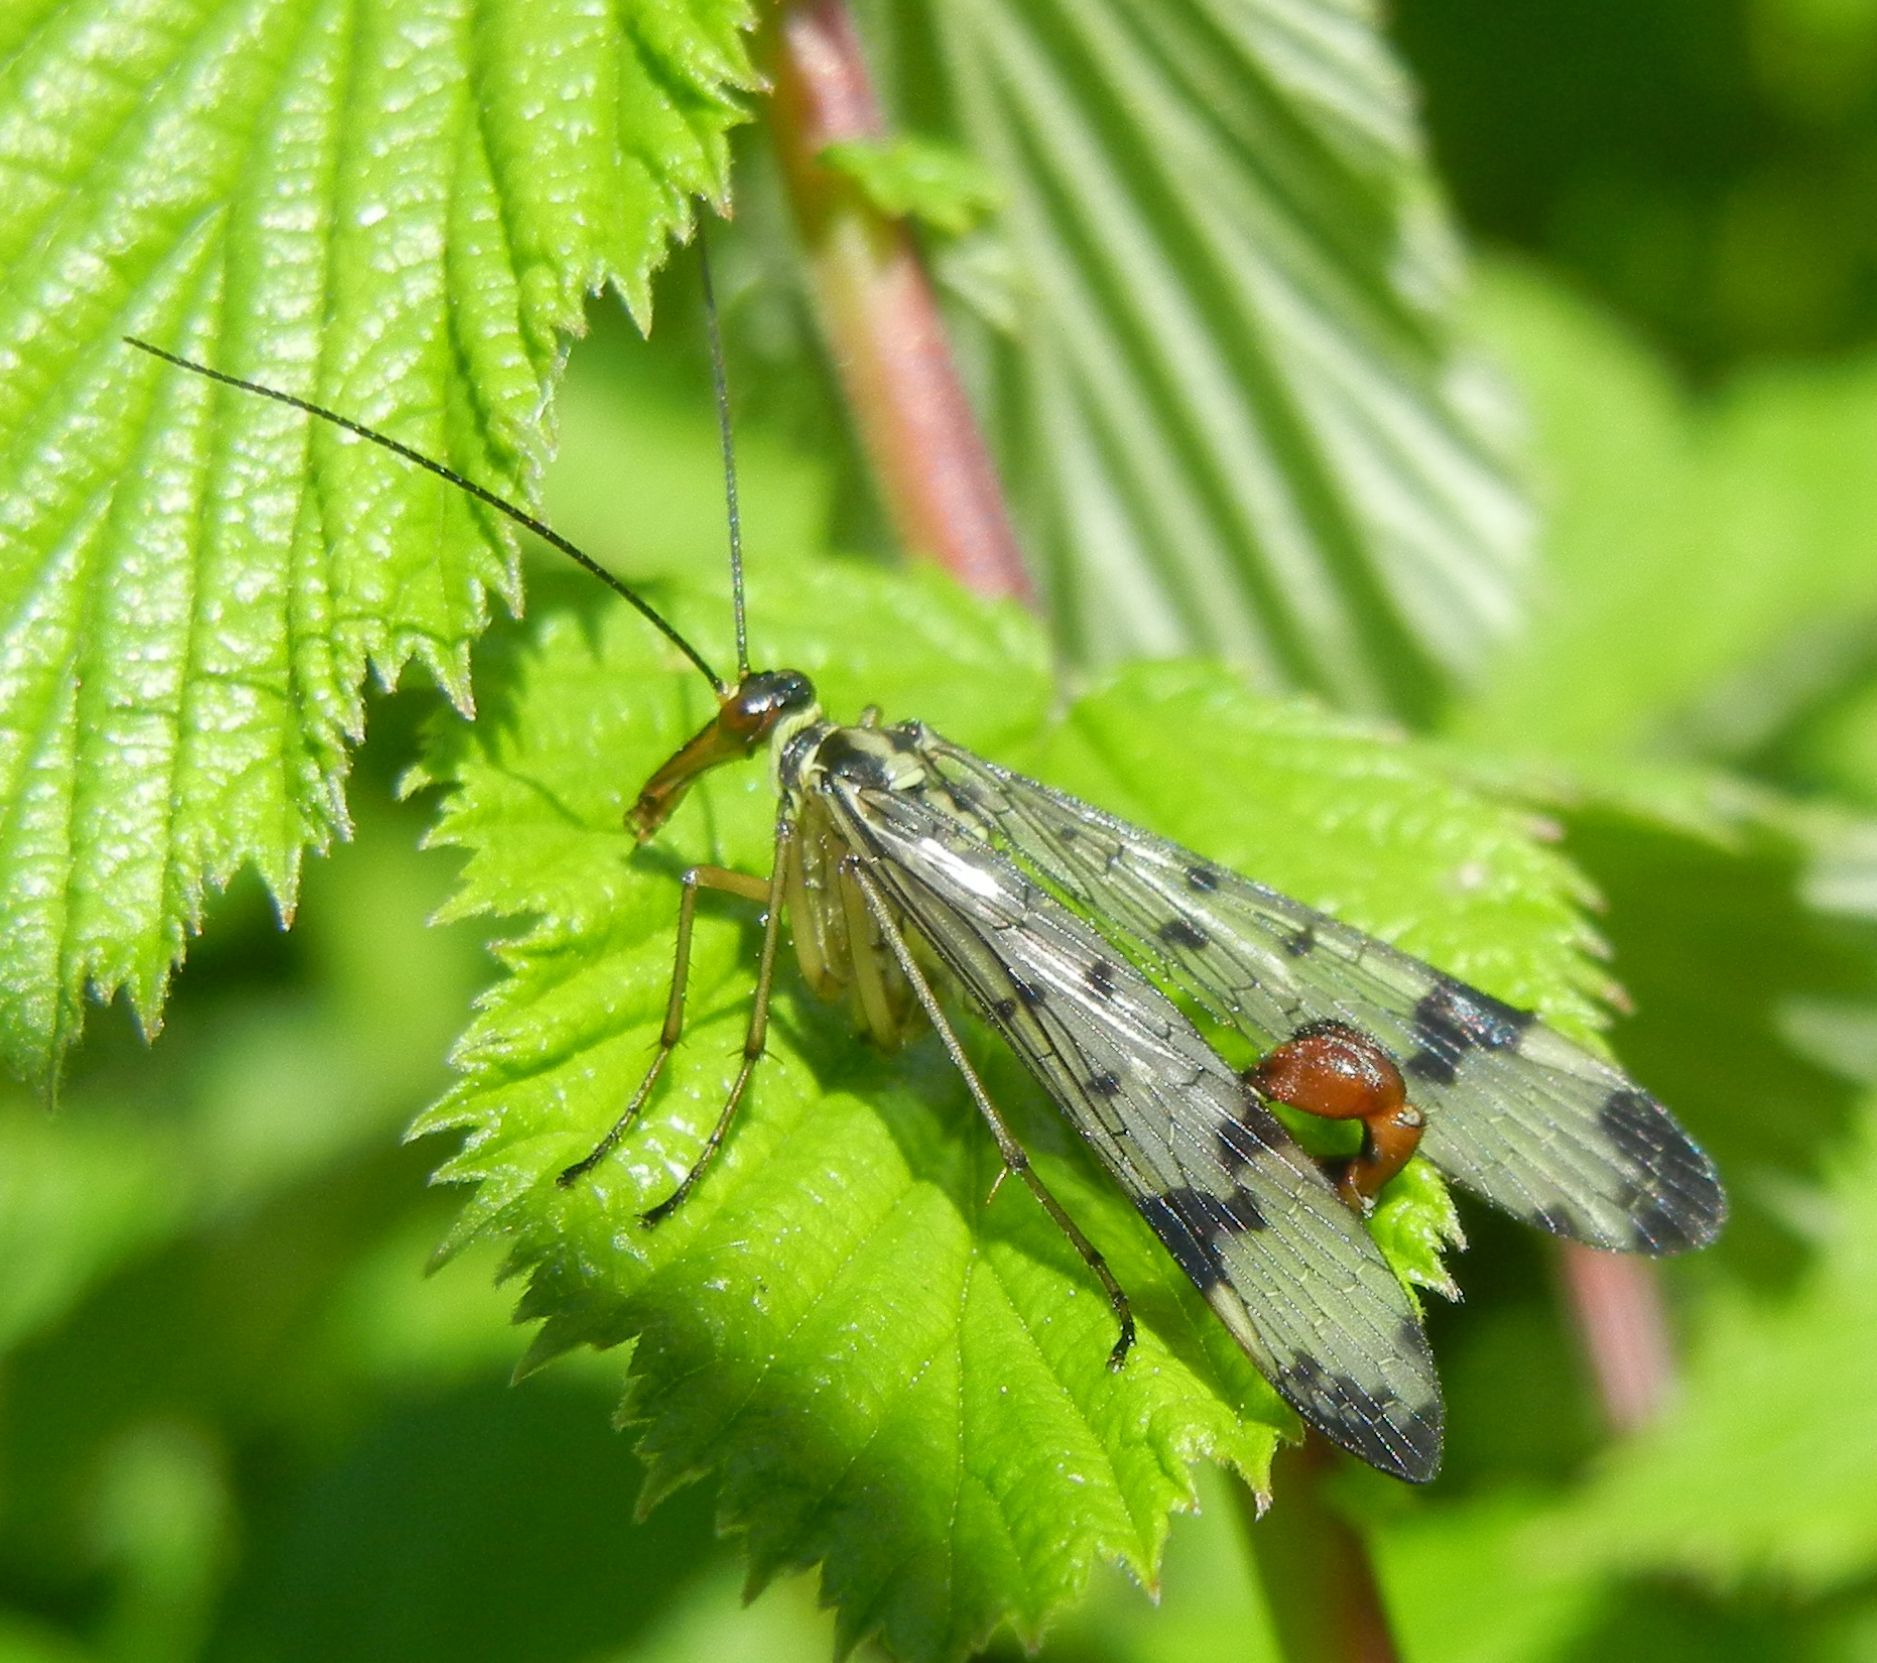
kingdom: Animalia
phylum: Arthropoda
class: Insecta
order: Mecoptera
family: Panorpidae
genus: Panorpa
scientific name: Panorpa communis
